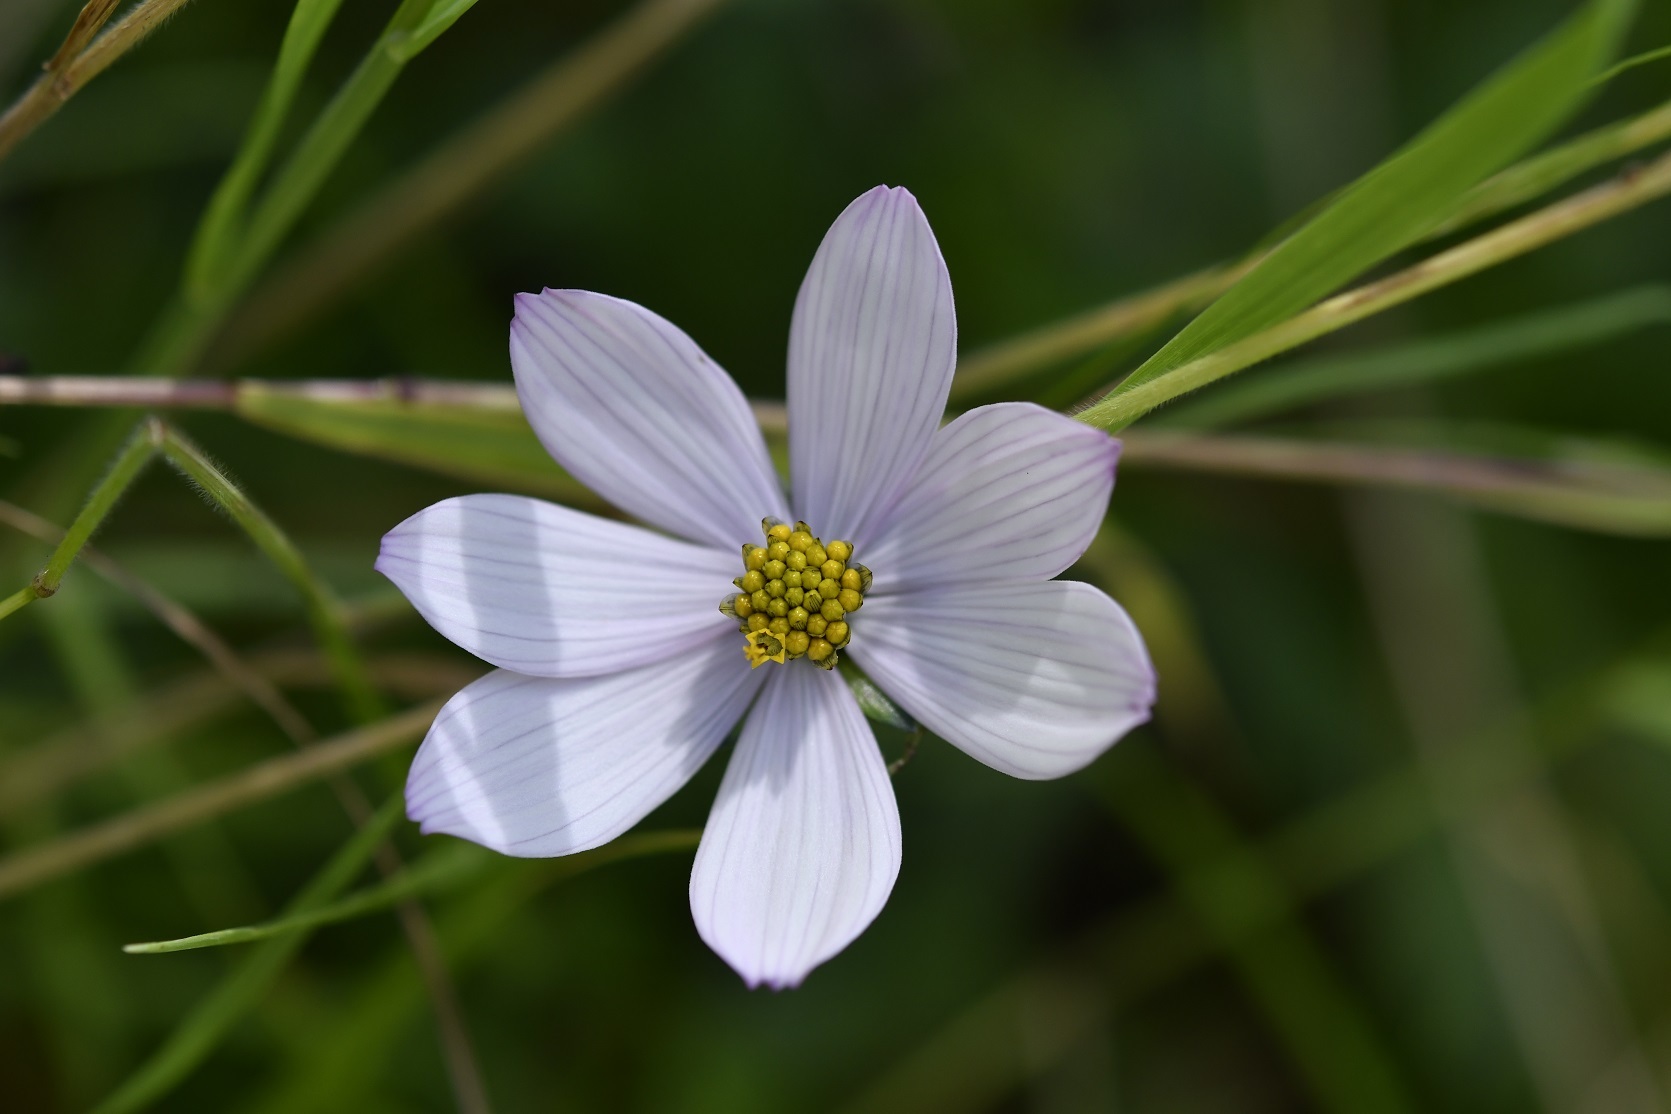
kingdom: Plantae
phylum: Tracheophyta
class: Magnoliopsida
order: Asterales
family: Asteraceae
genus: Cosmos
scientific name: Cosmos diversifolius
